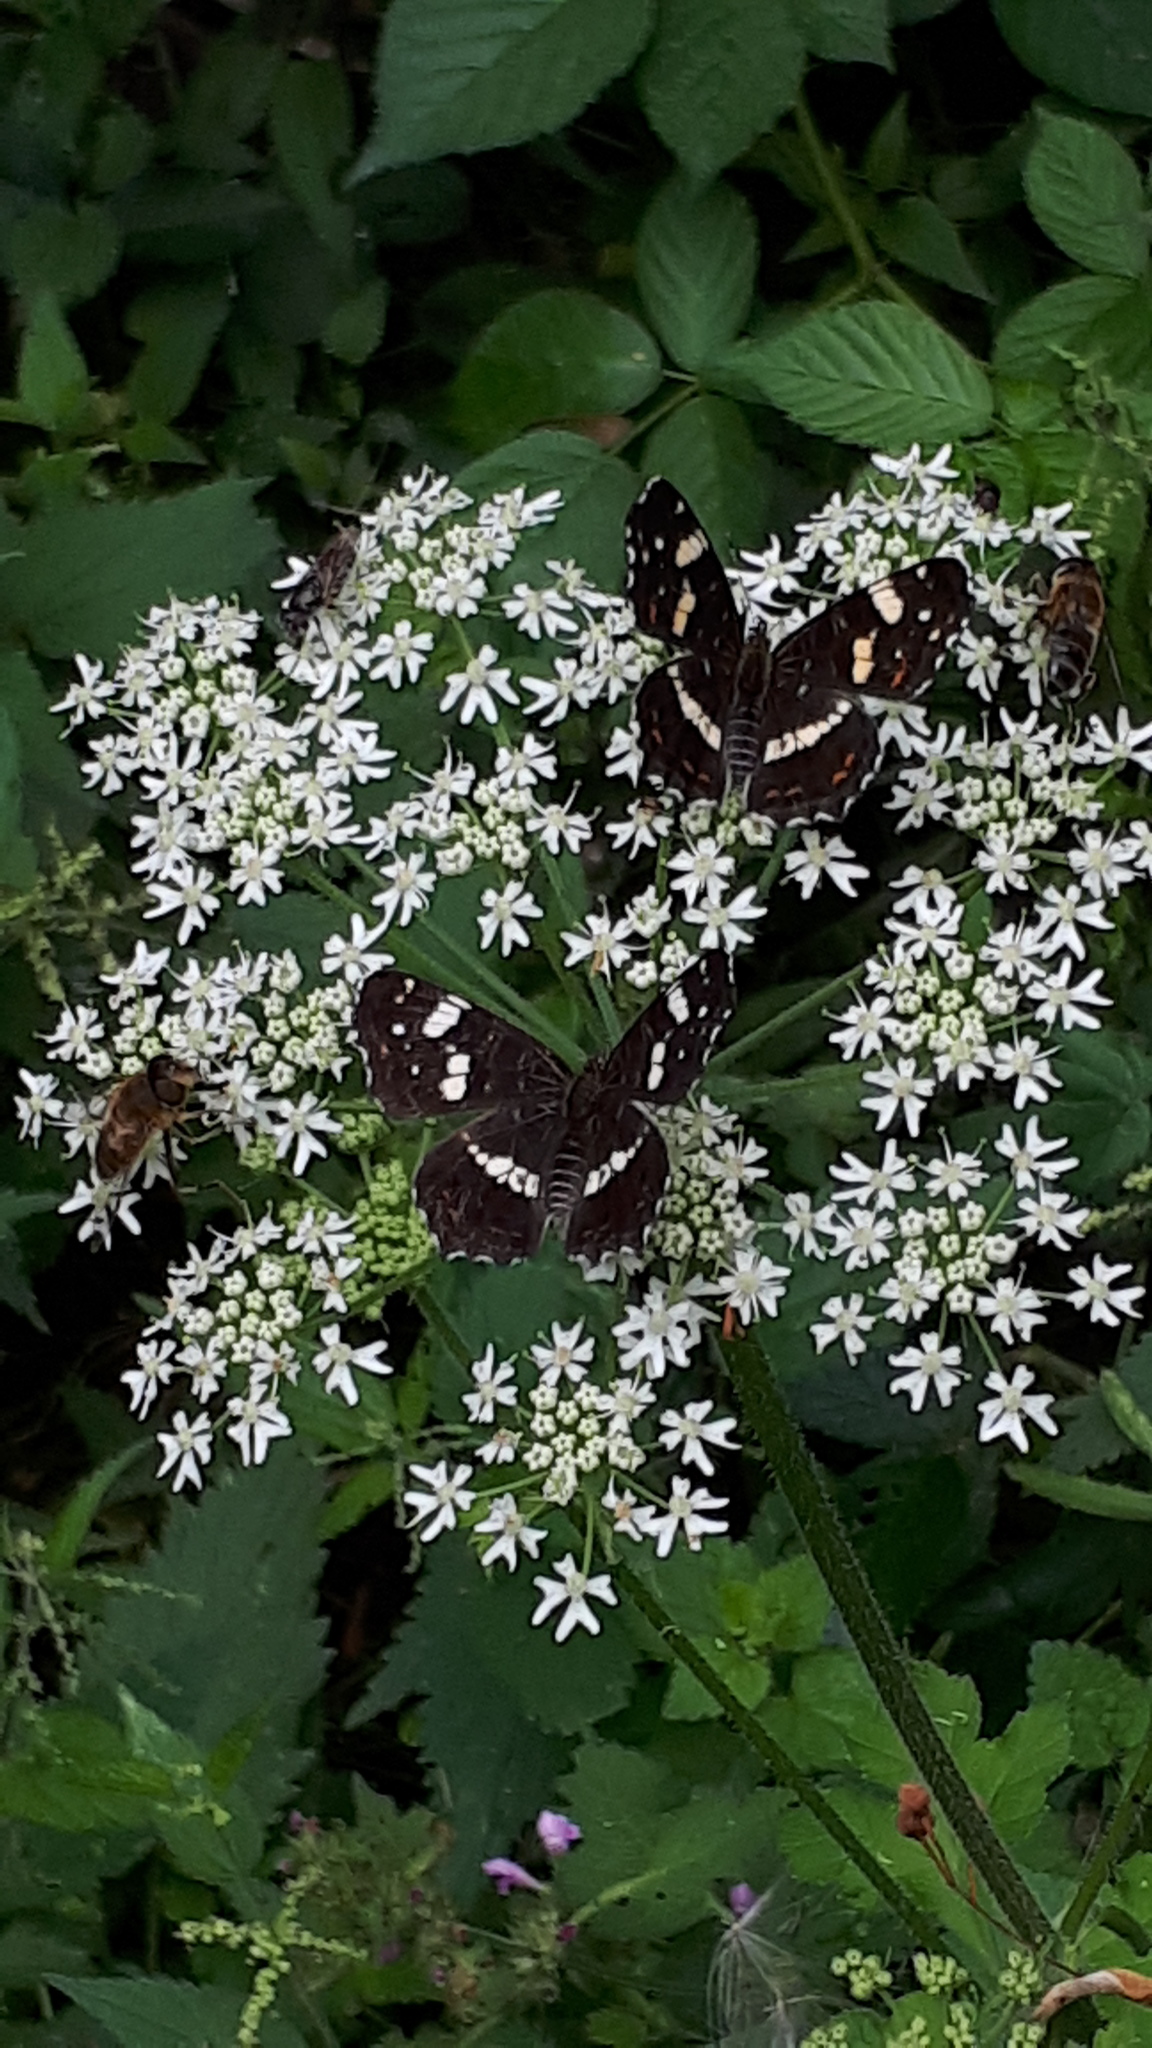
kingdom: Animalia
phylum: Arthropoda
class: Insecta
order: Lepidoptera
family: Nymphalidae
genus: Araschnia
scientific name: Araschnia levana
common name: Map butterfly
